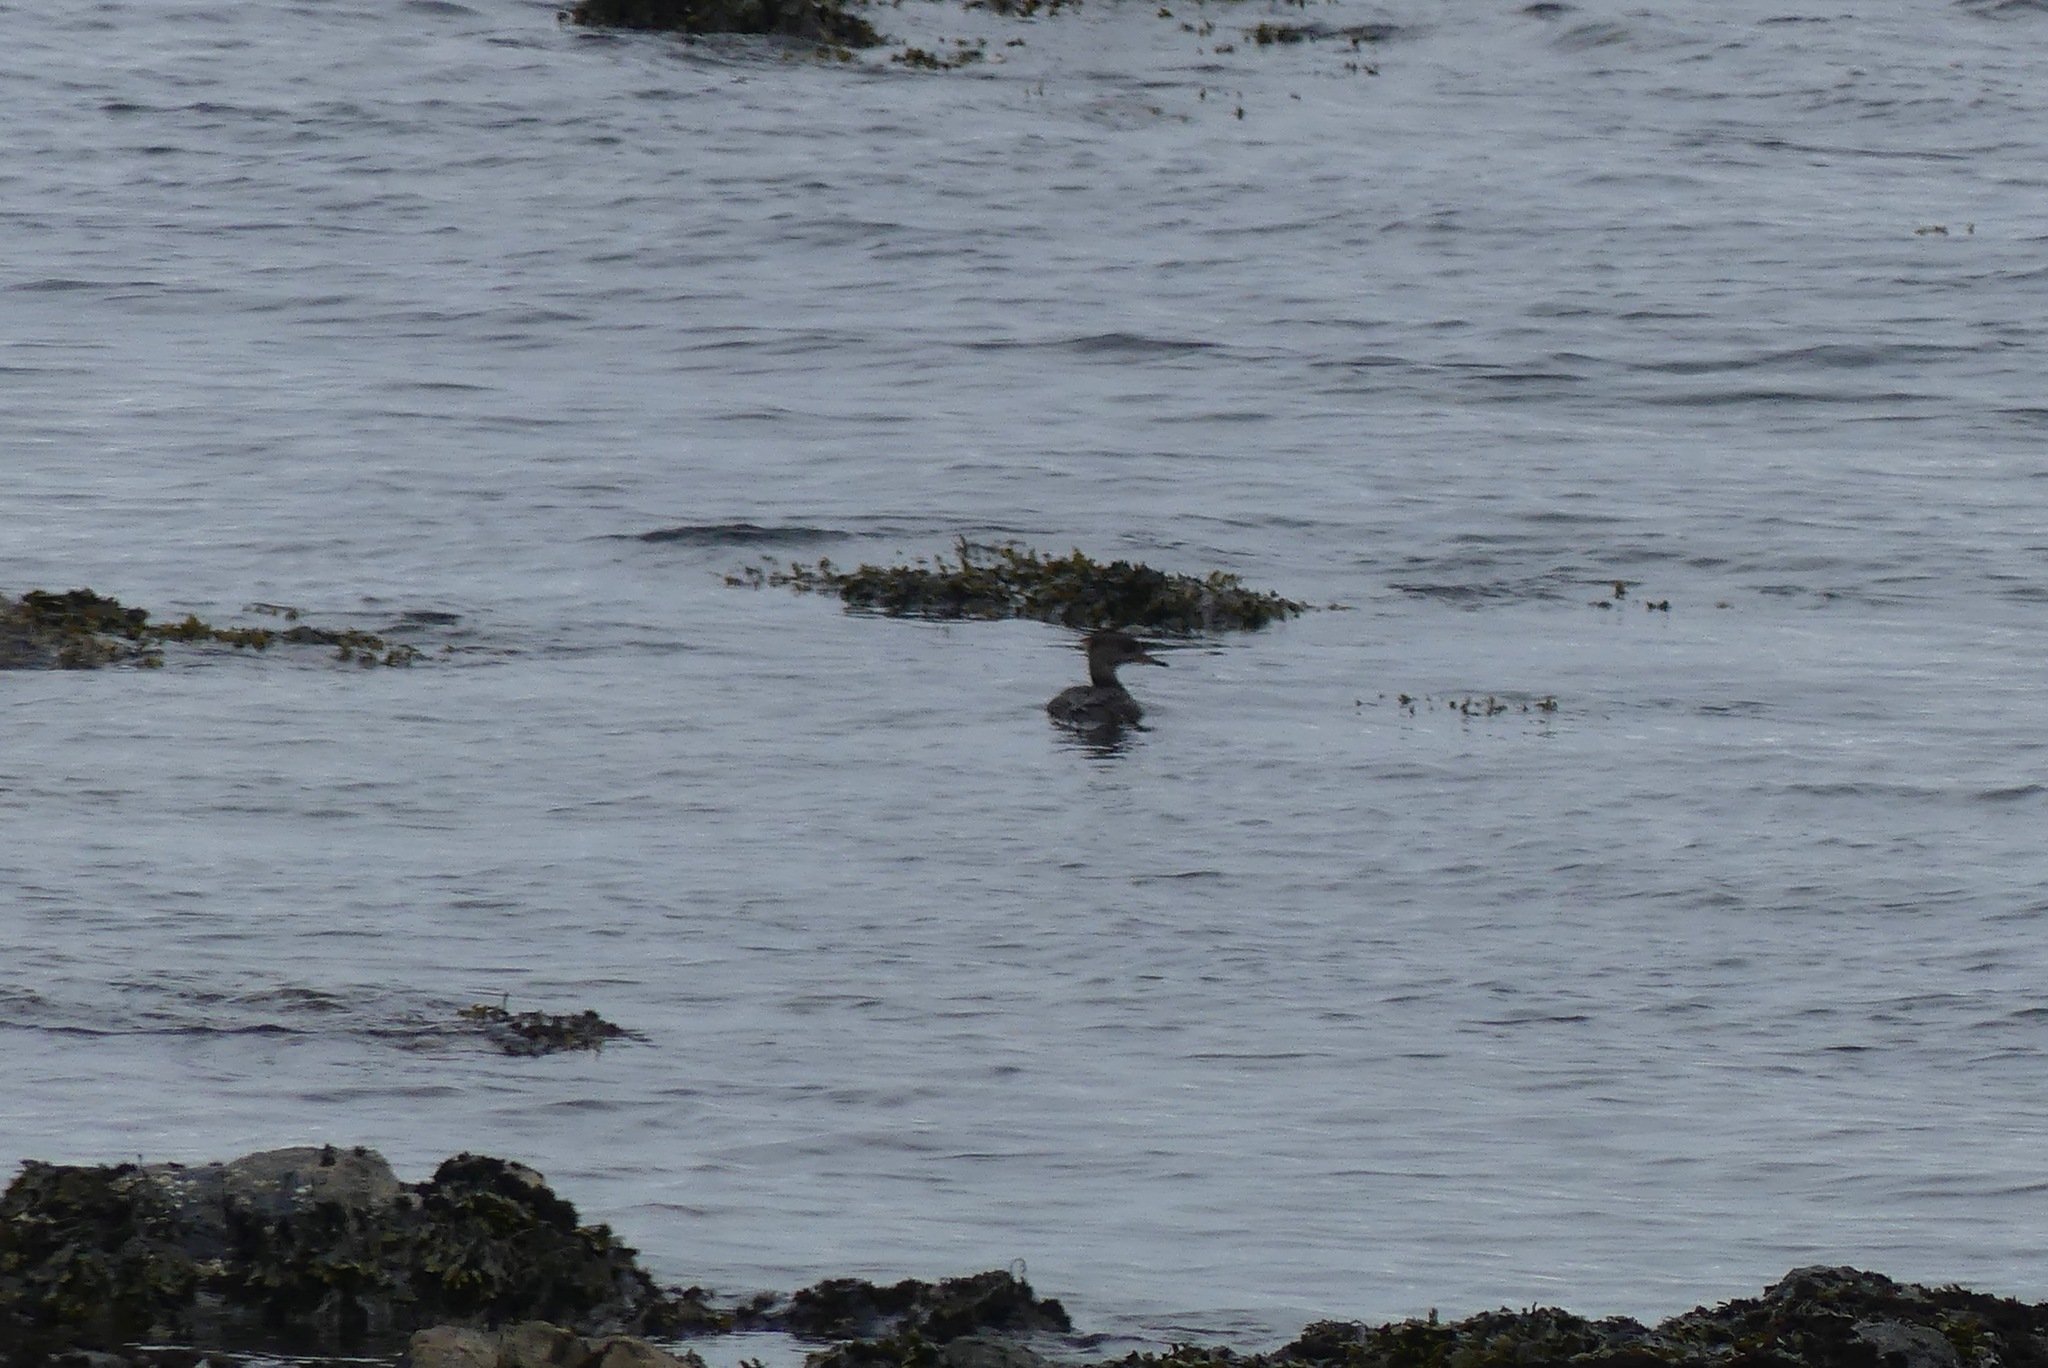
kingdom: Animalia
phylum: Chordata
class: Aves
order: Anseriformes
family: Anatidae
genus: Mergus
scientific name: Mergus serrator
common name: Red-breasted merganser
